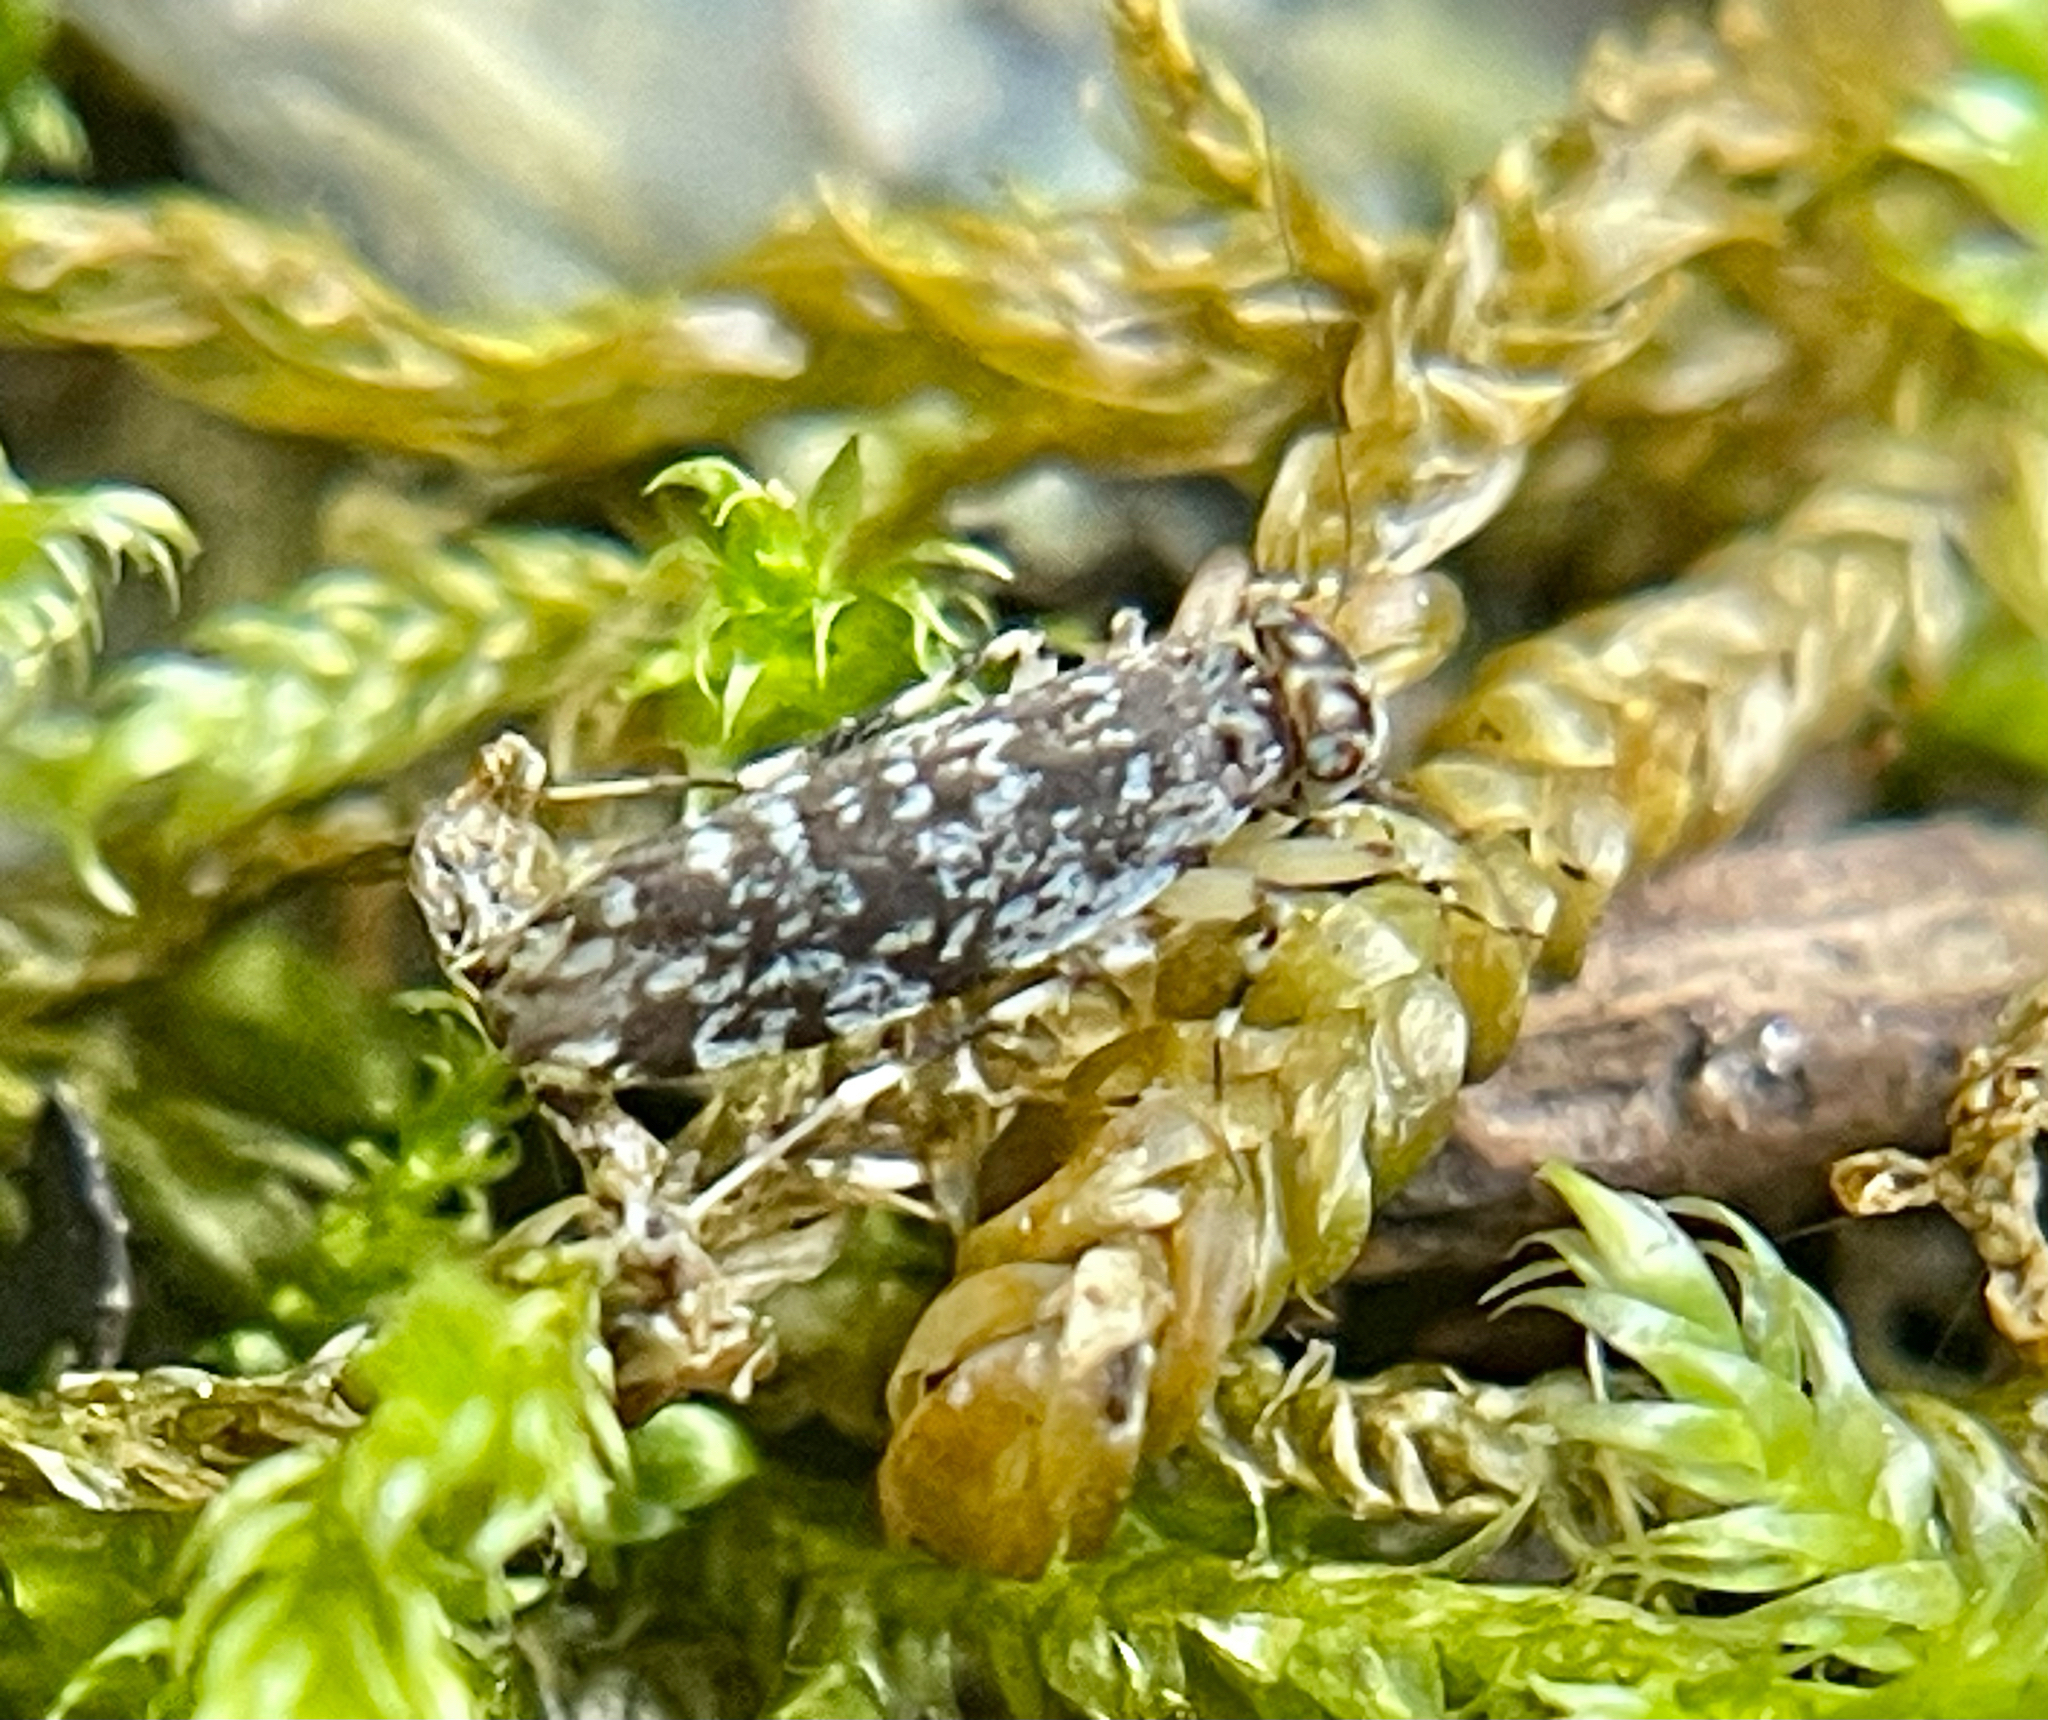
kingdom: Animalia
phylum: Arthropoda
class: Insecta
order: Psocodea
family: Amphientomidae
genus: Stimulopalpus
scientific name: Stimulopalpus japonicus
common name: Tropical bark louse
